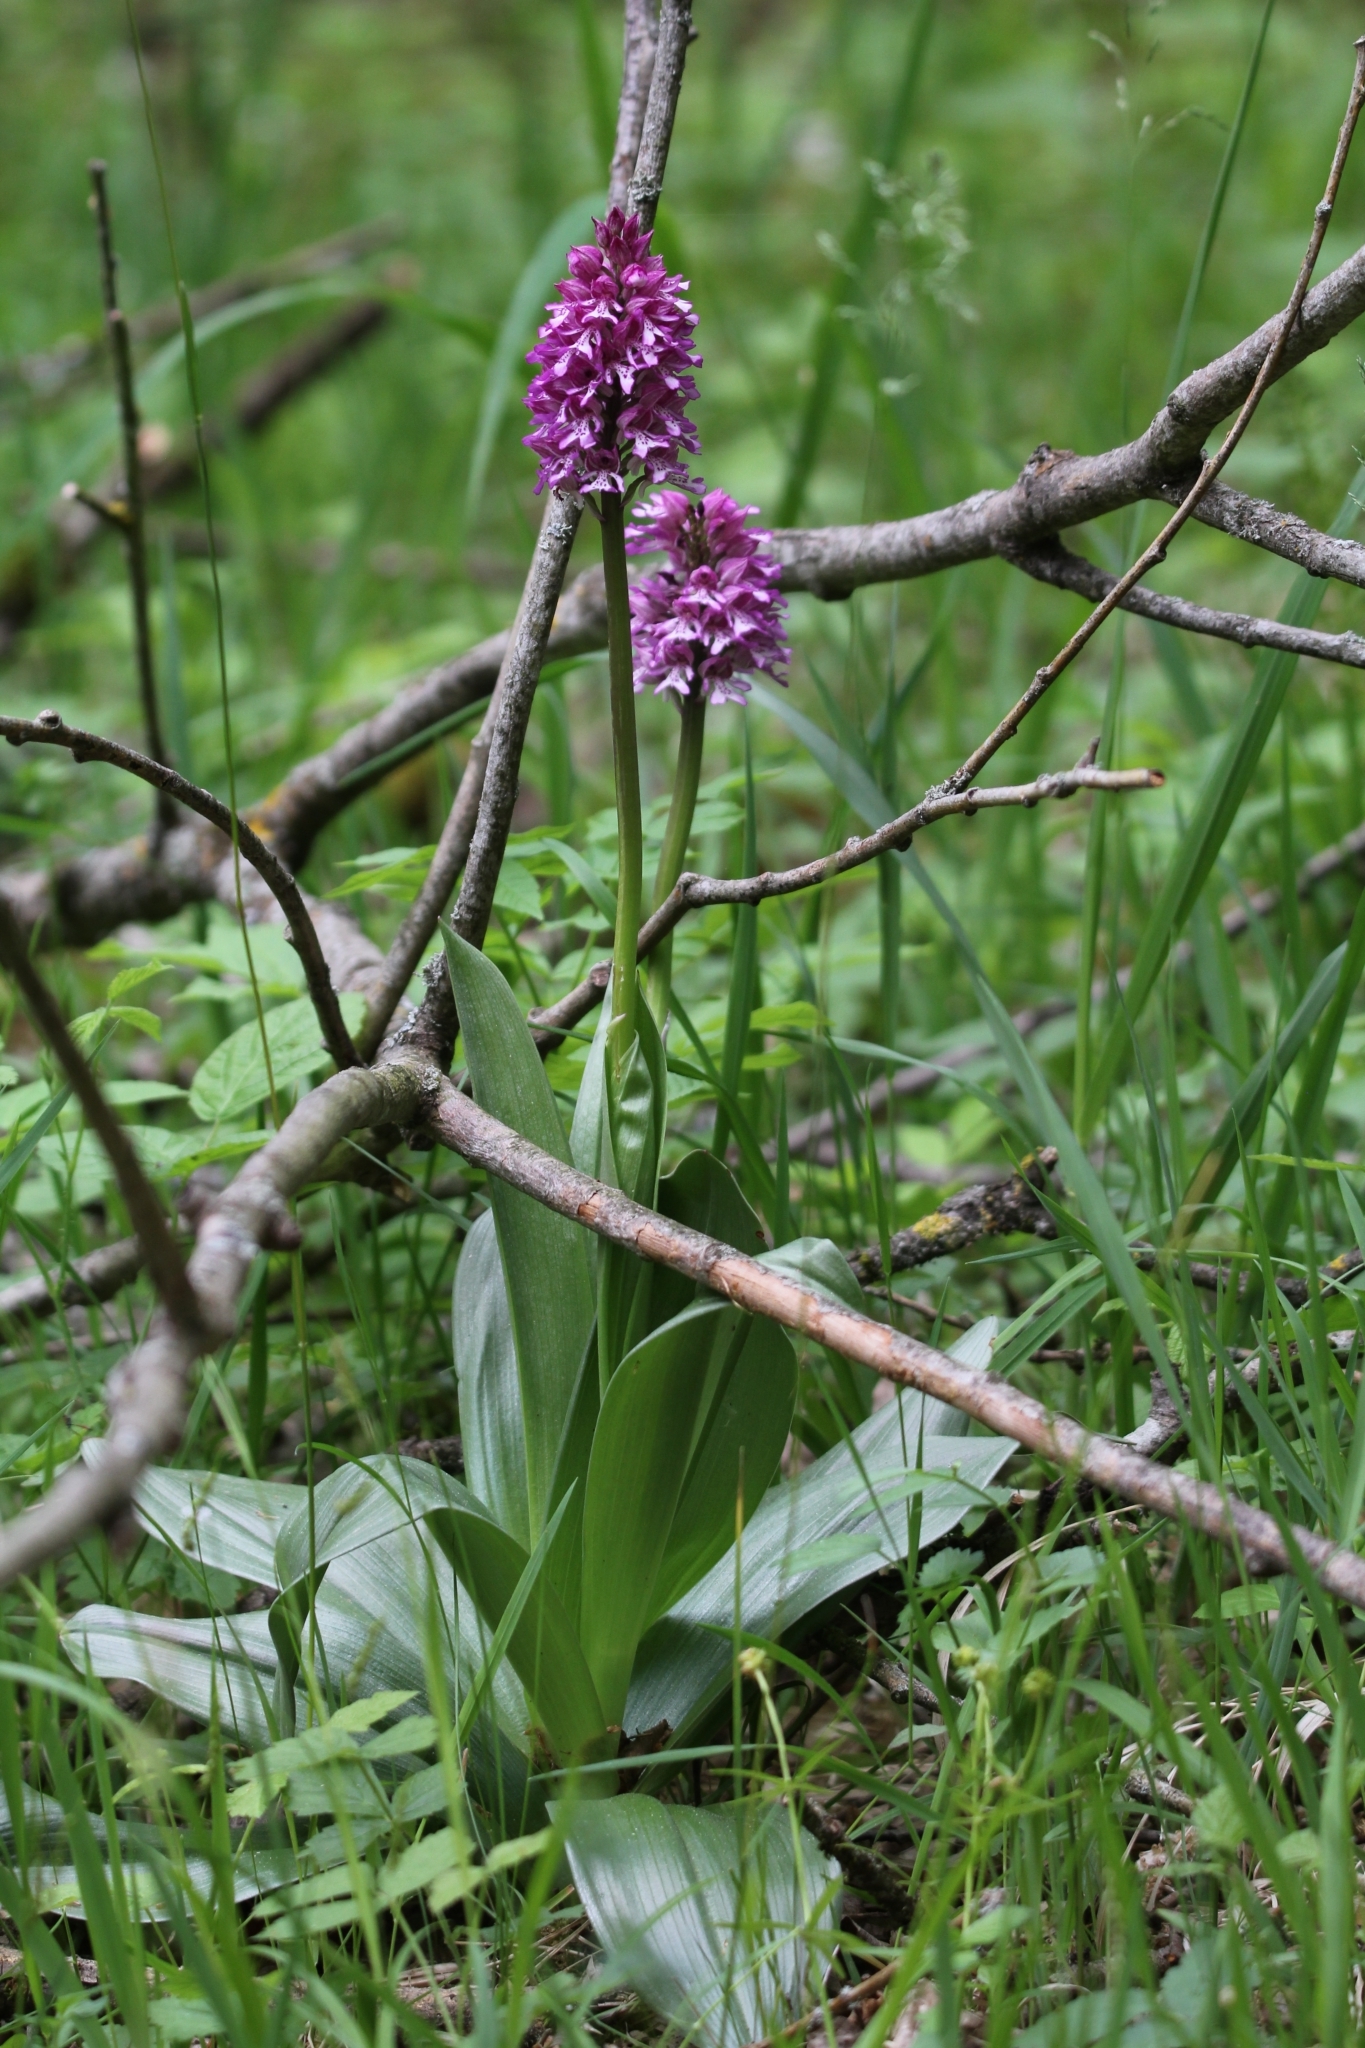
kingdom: Plantae
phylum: Tracheophyta
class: Liliopsida
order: Asparagales
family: Orchidaceae
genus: Orchis
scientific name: Orchis hybrida
